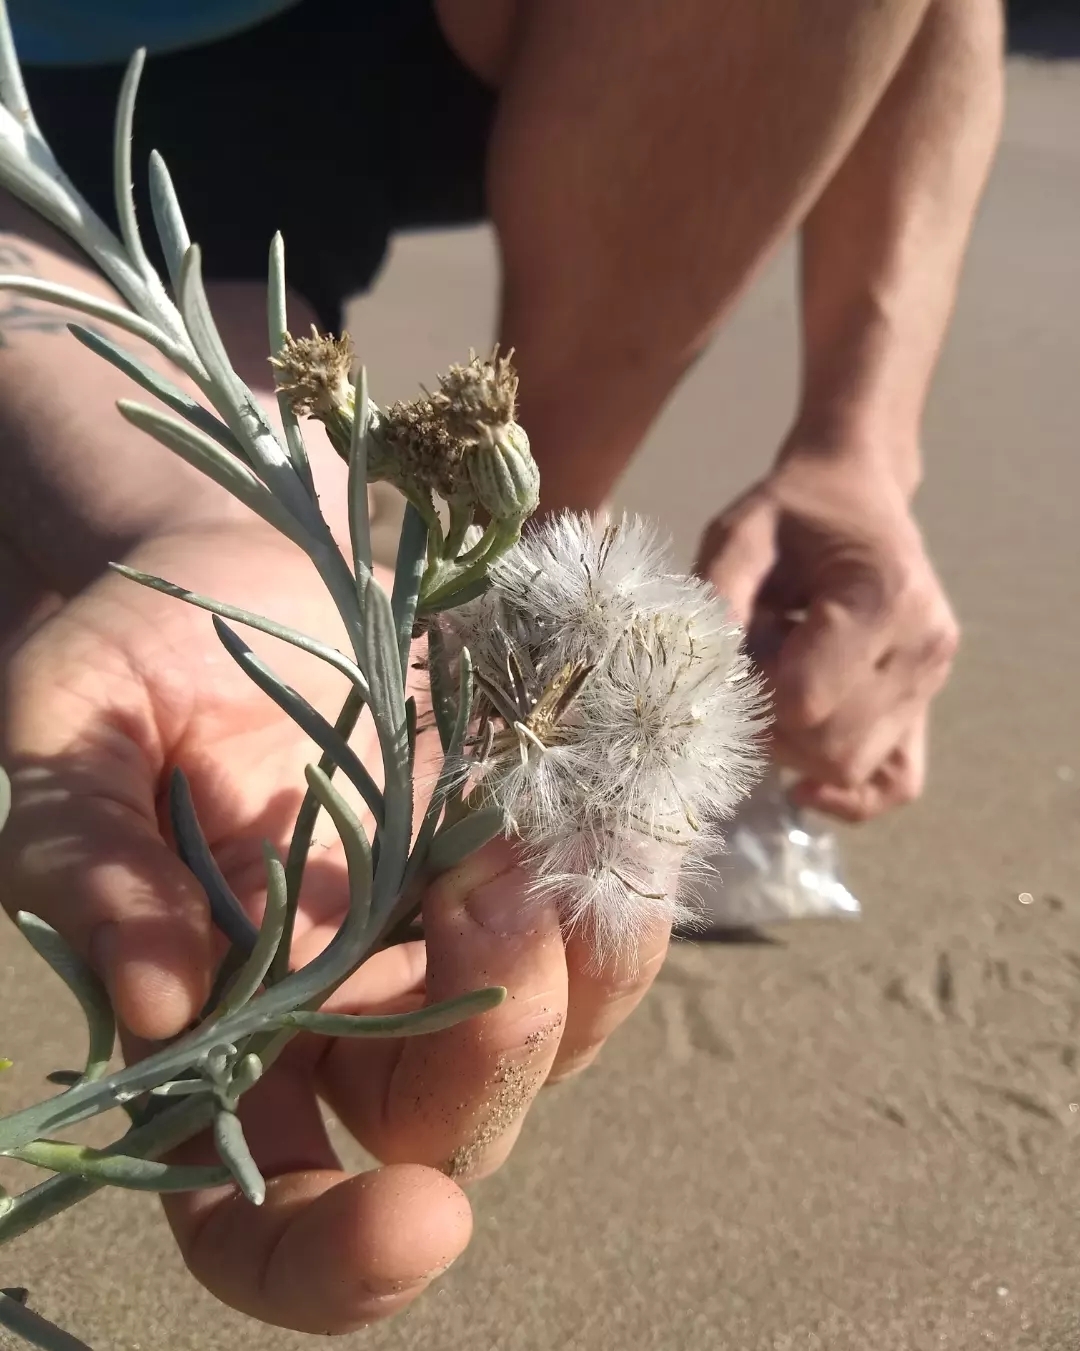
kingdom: Plantae
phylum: Tracheophyta
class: Magnoliopsida
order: Asterales
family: Asteraceae
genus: Senecio
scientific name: Senecio bergii
